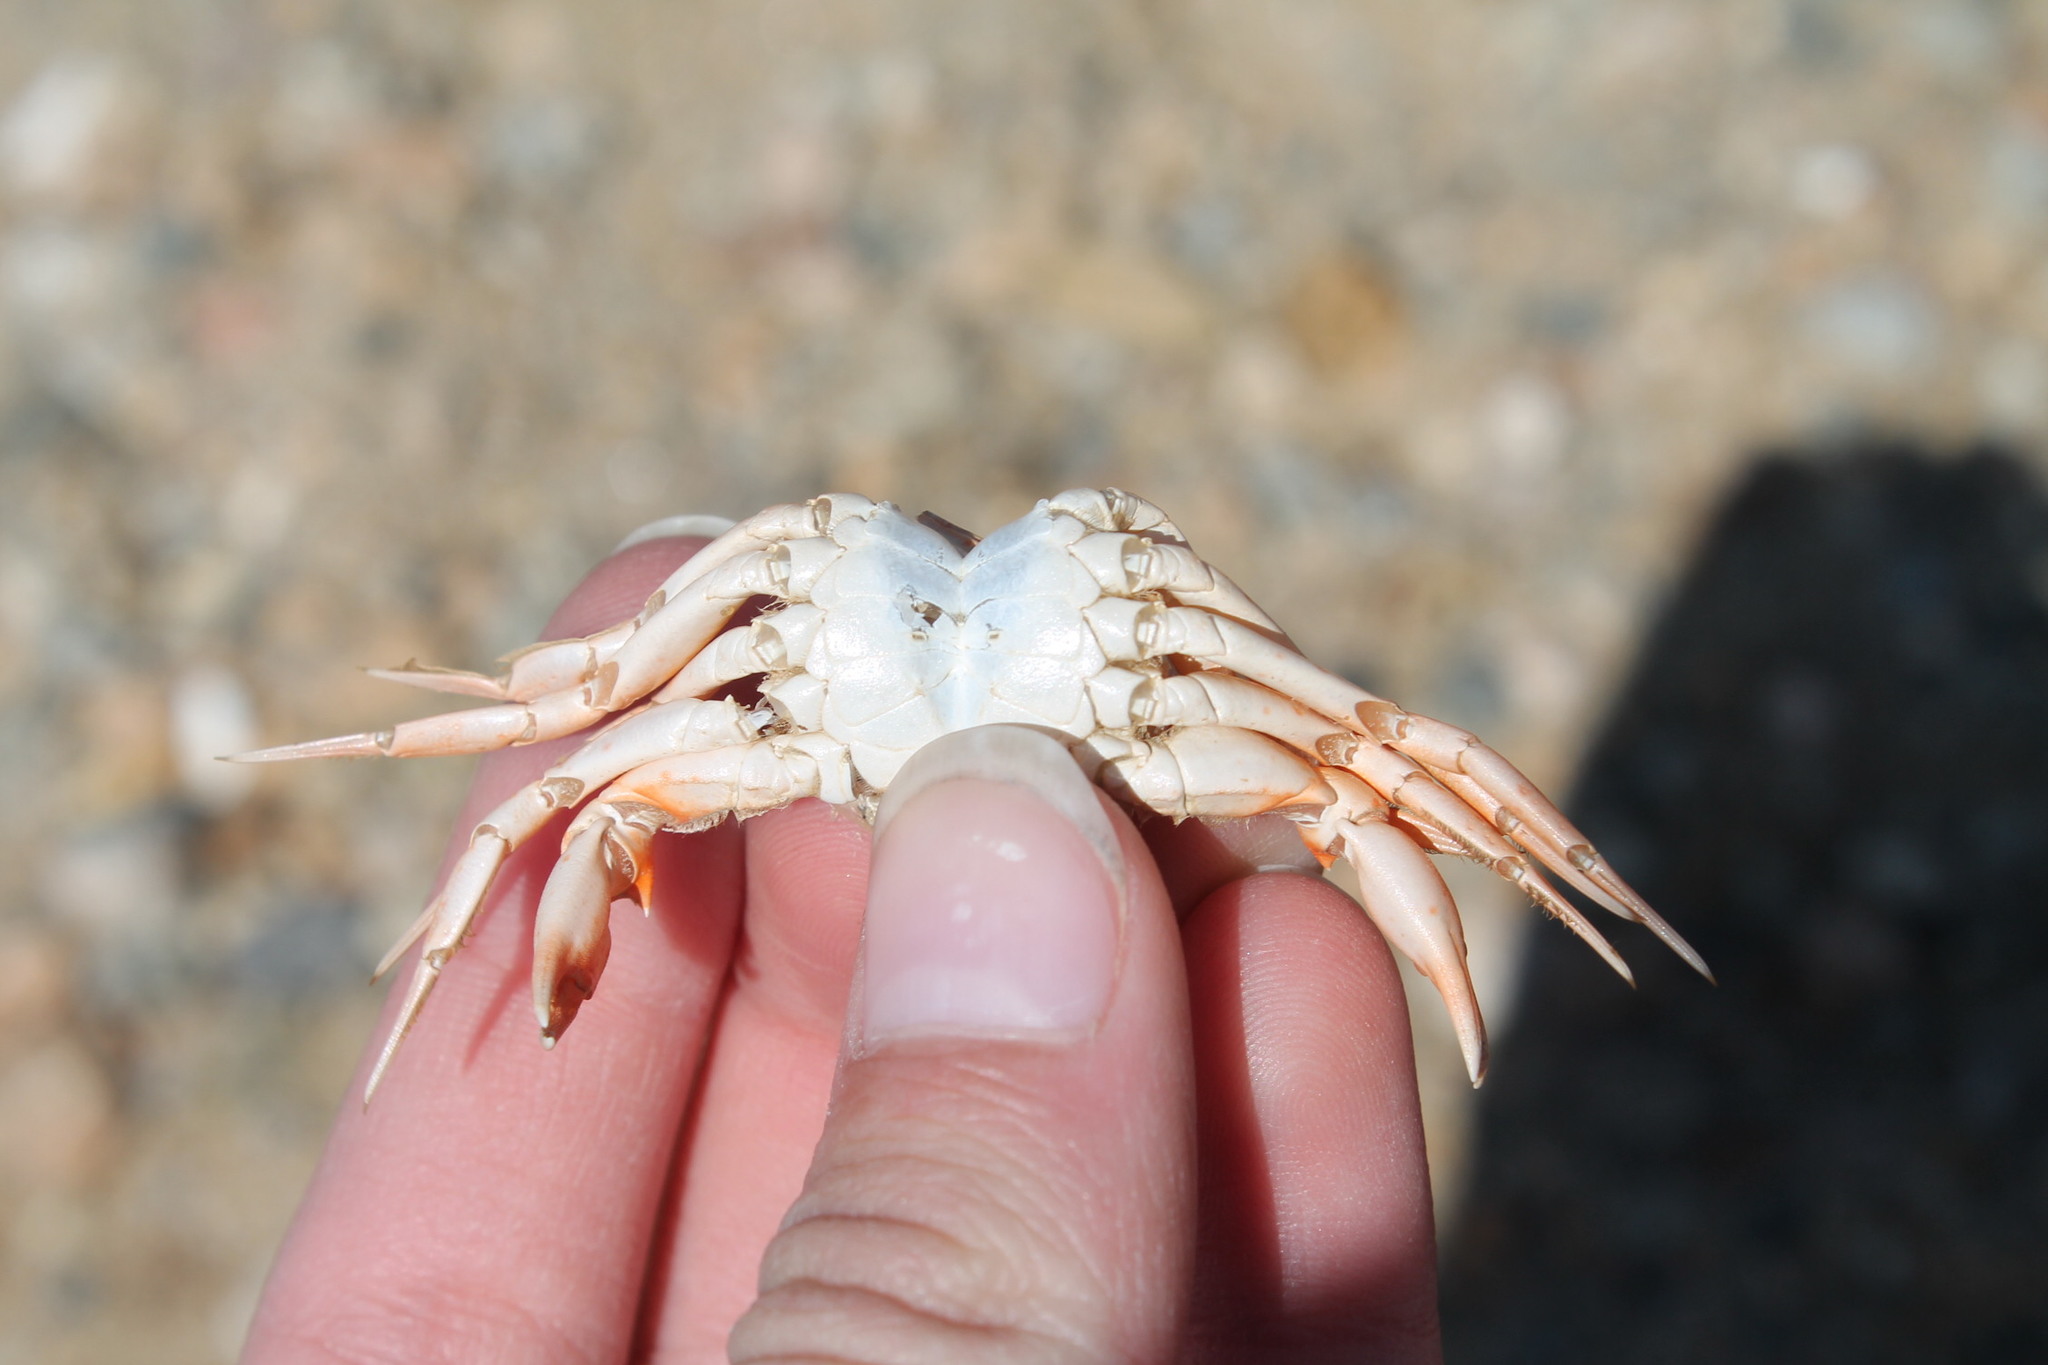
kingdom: Animalia
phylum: Arthropoda
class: Malacostraca
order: Decapoda
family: Carcinidae
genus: Carcinus
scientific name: Carcinus maenas
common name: European green crab
